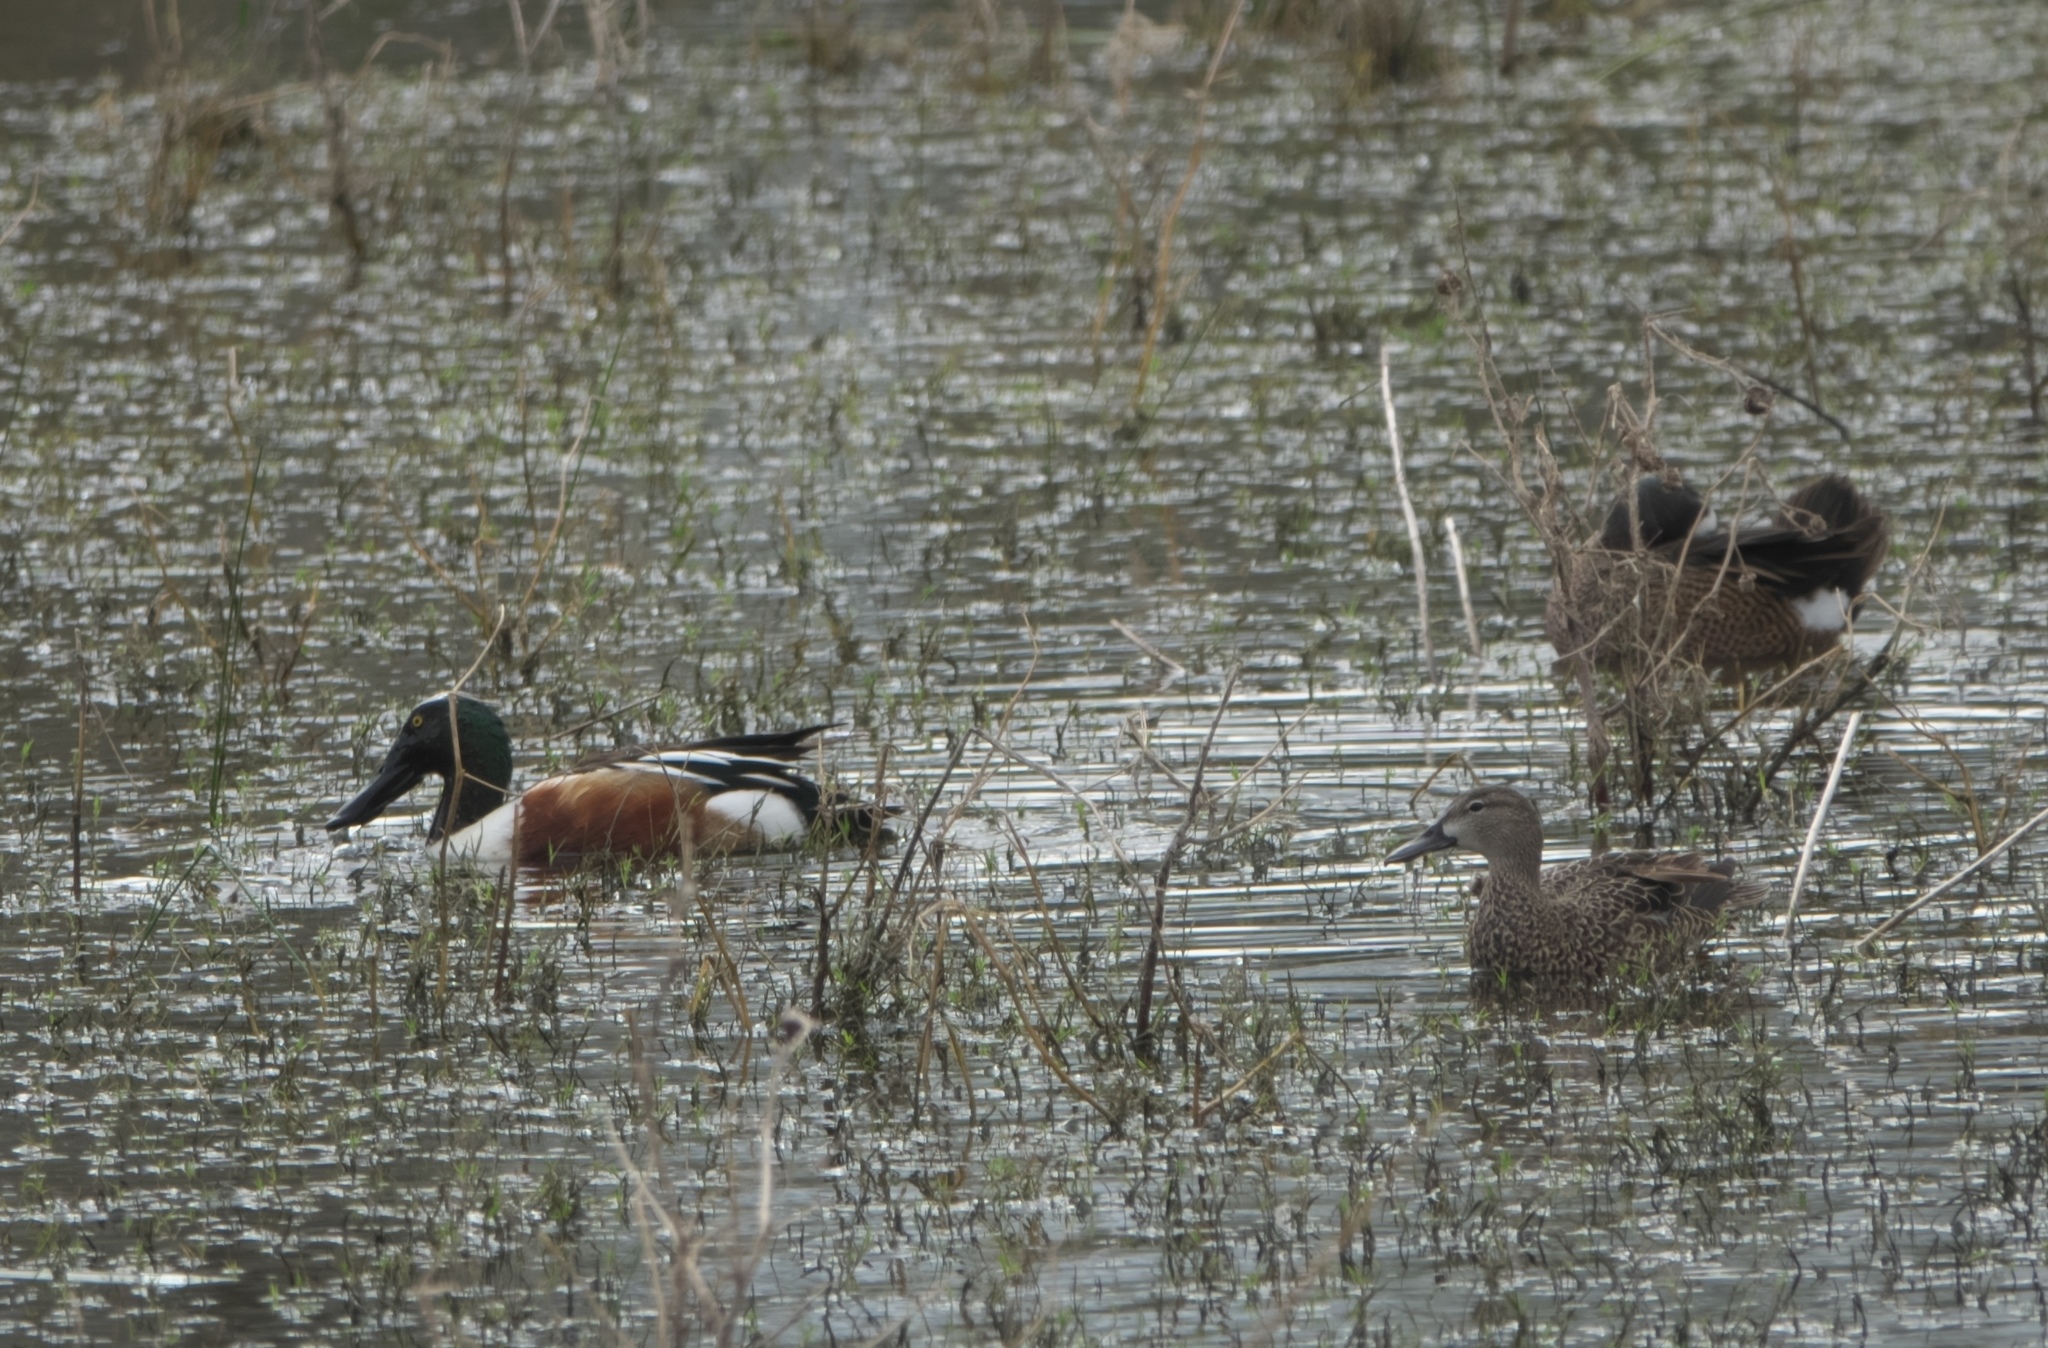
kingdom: Animalia
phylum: Chordata
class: Aves
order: Anseriformes
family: Anatidae
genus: Spatula
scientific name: Spatula clypeata
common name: Northern shoveler
